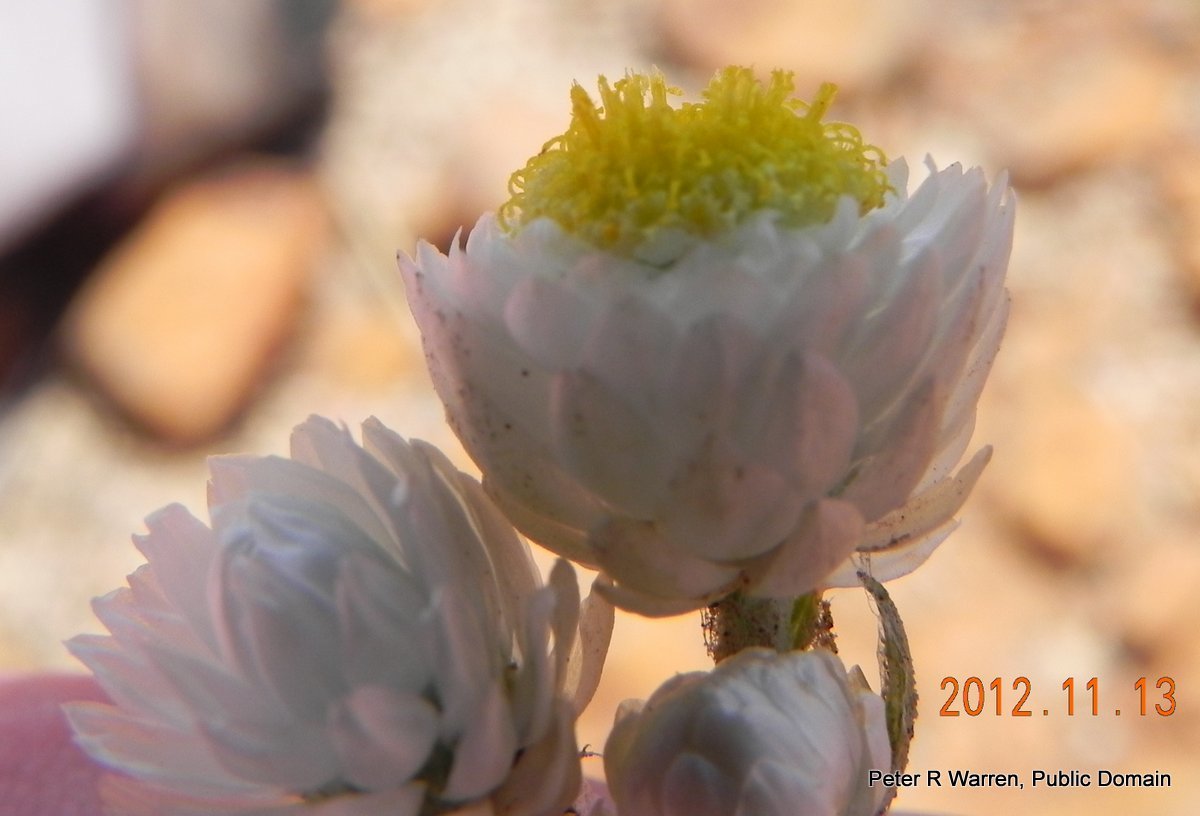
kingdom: Plantae
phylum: Tracheophyta
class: Magnoliopsida
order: Asterales
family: Asteraceae
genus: Helichrysum
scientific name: Helichrysum chionosphaerum
